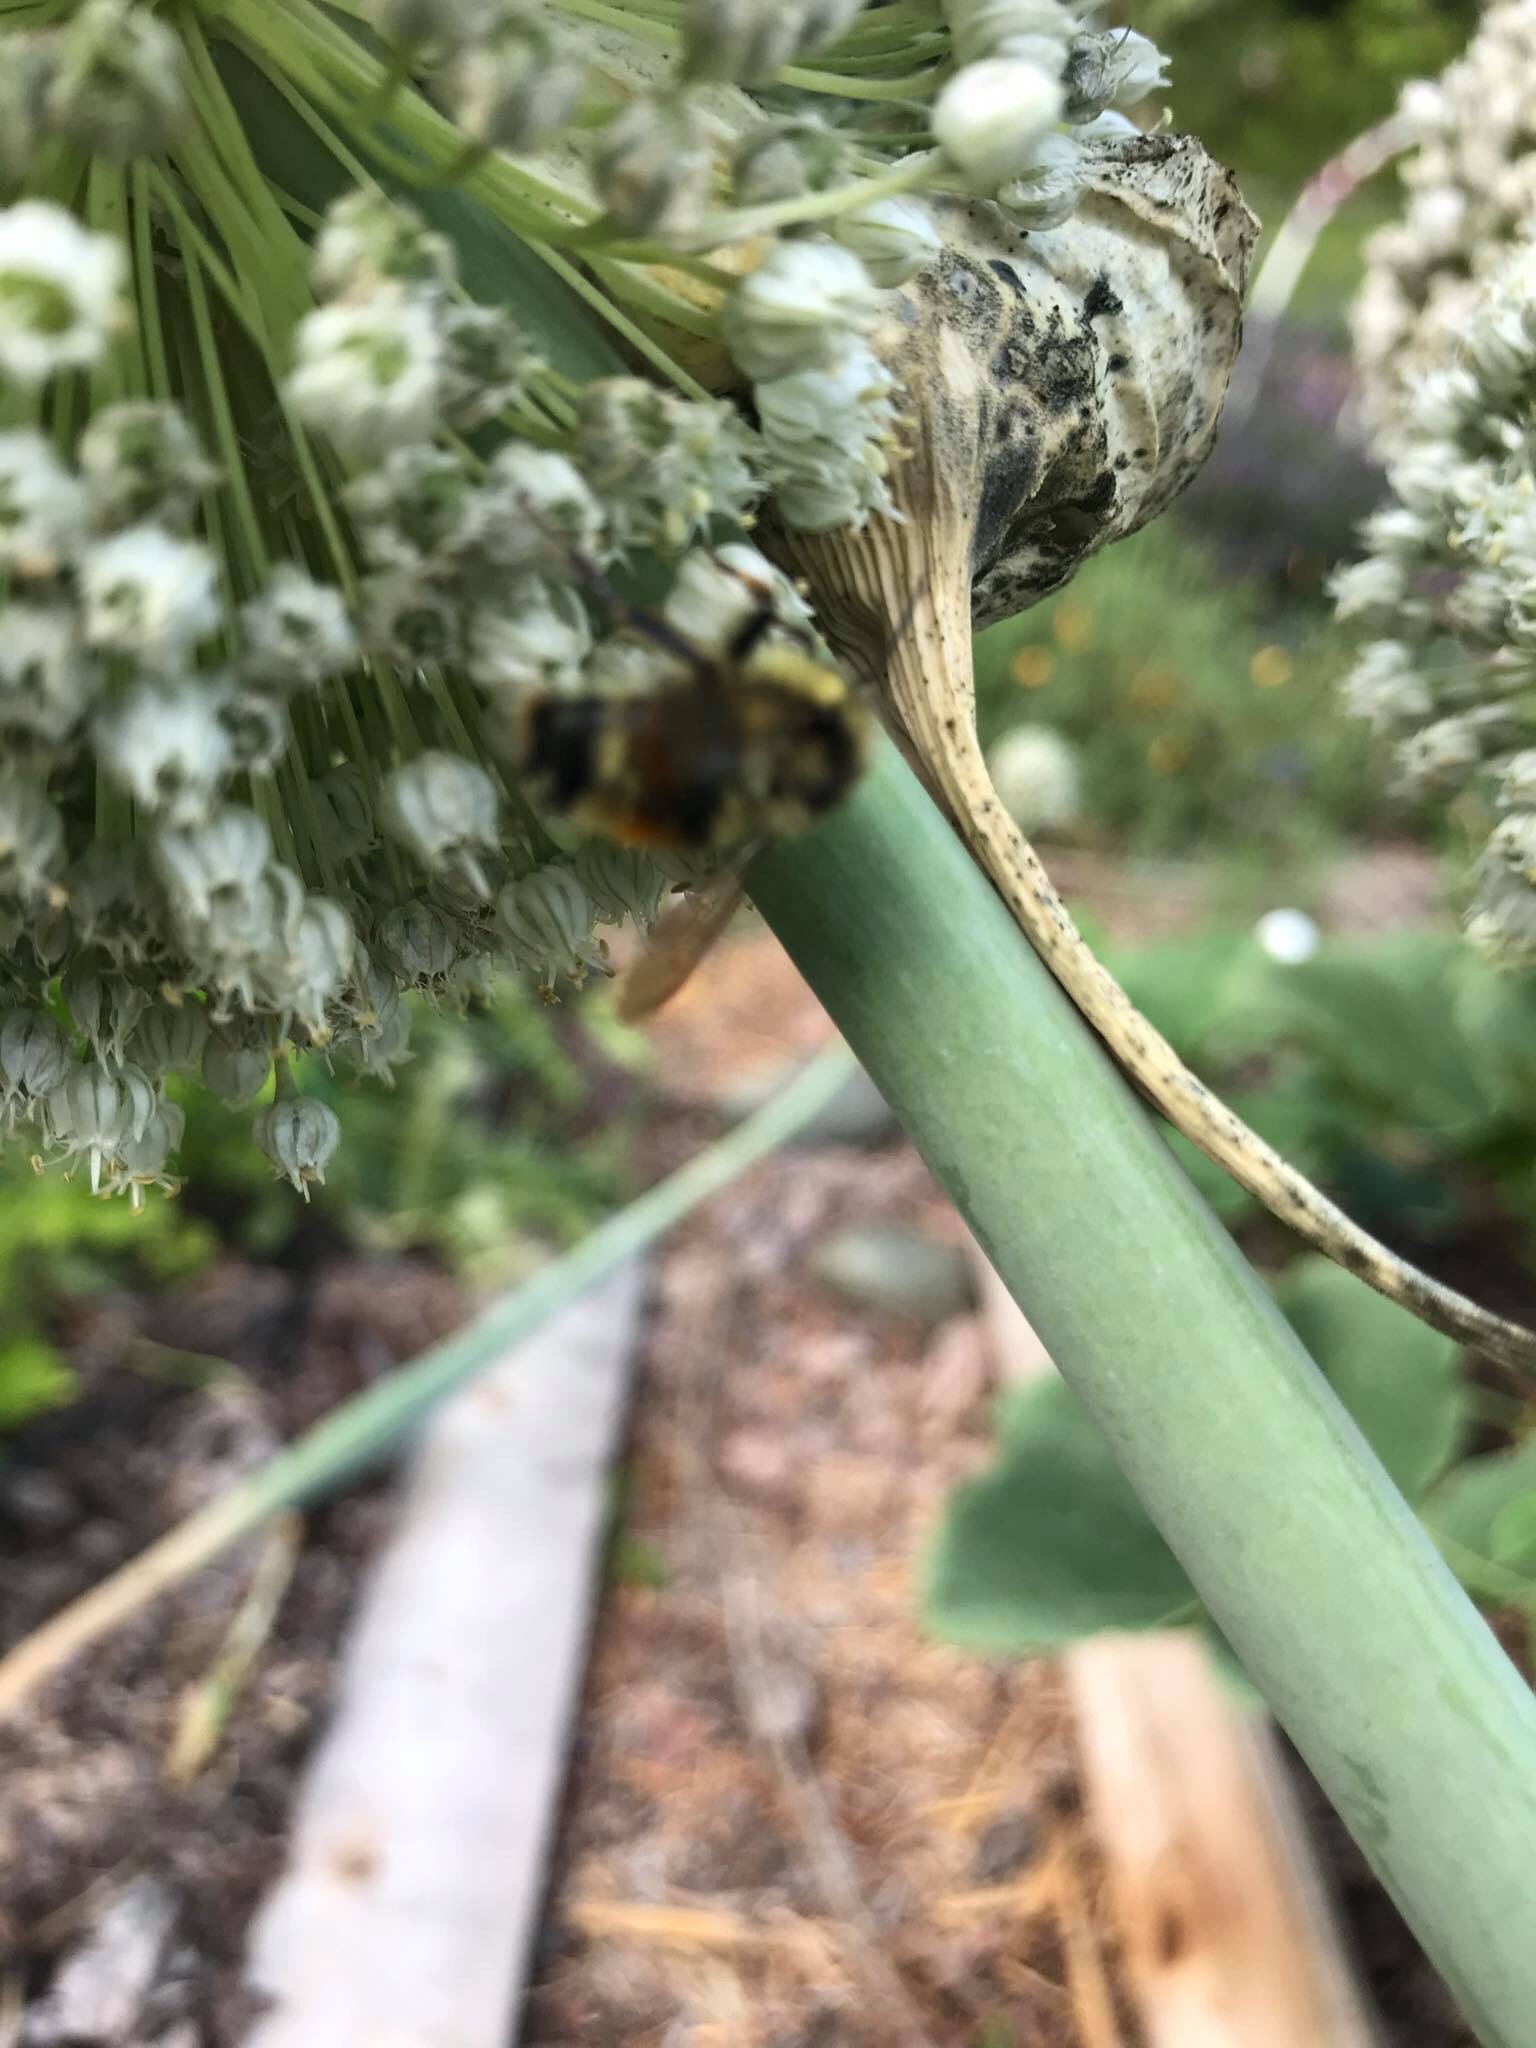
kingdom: Animalia
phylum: Arthropoda
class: Insecta
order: Hymenoptera
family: Apidae
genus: Bombus
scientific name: Bombus vancouverensis
